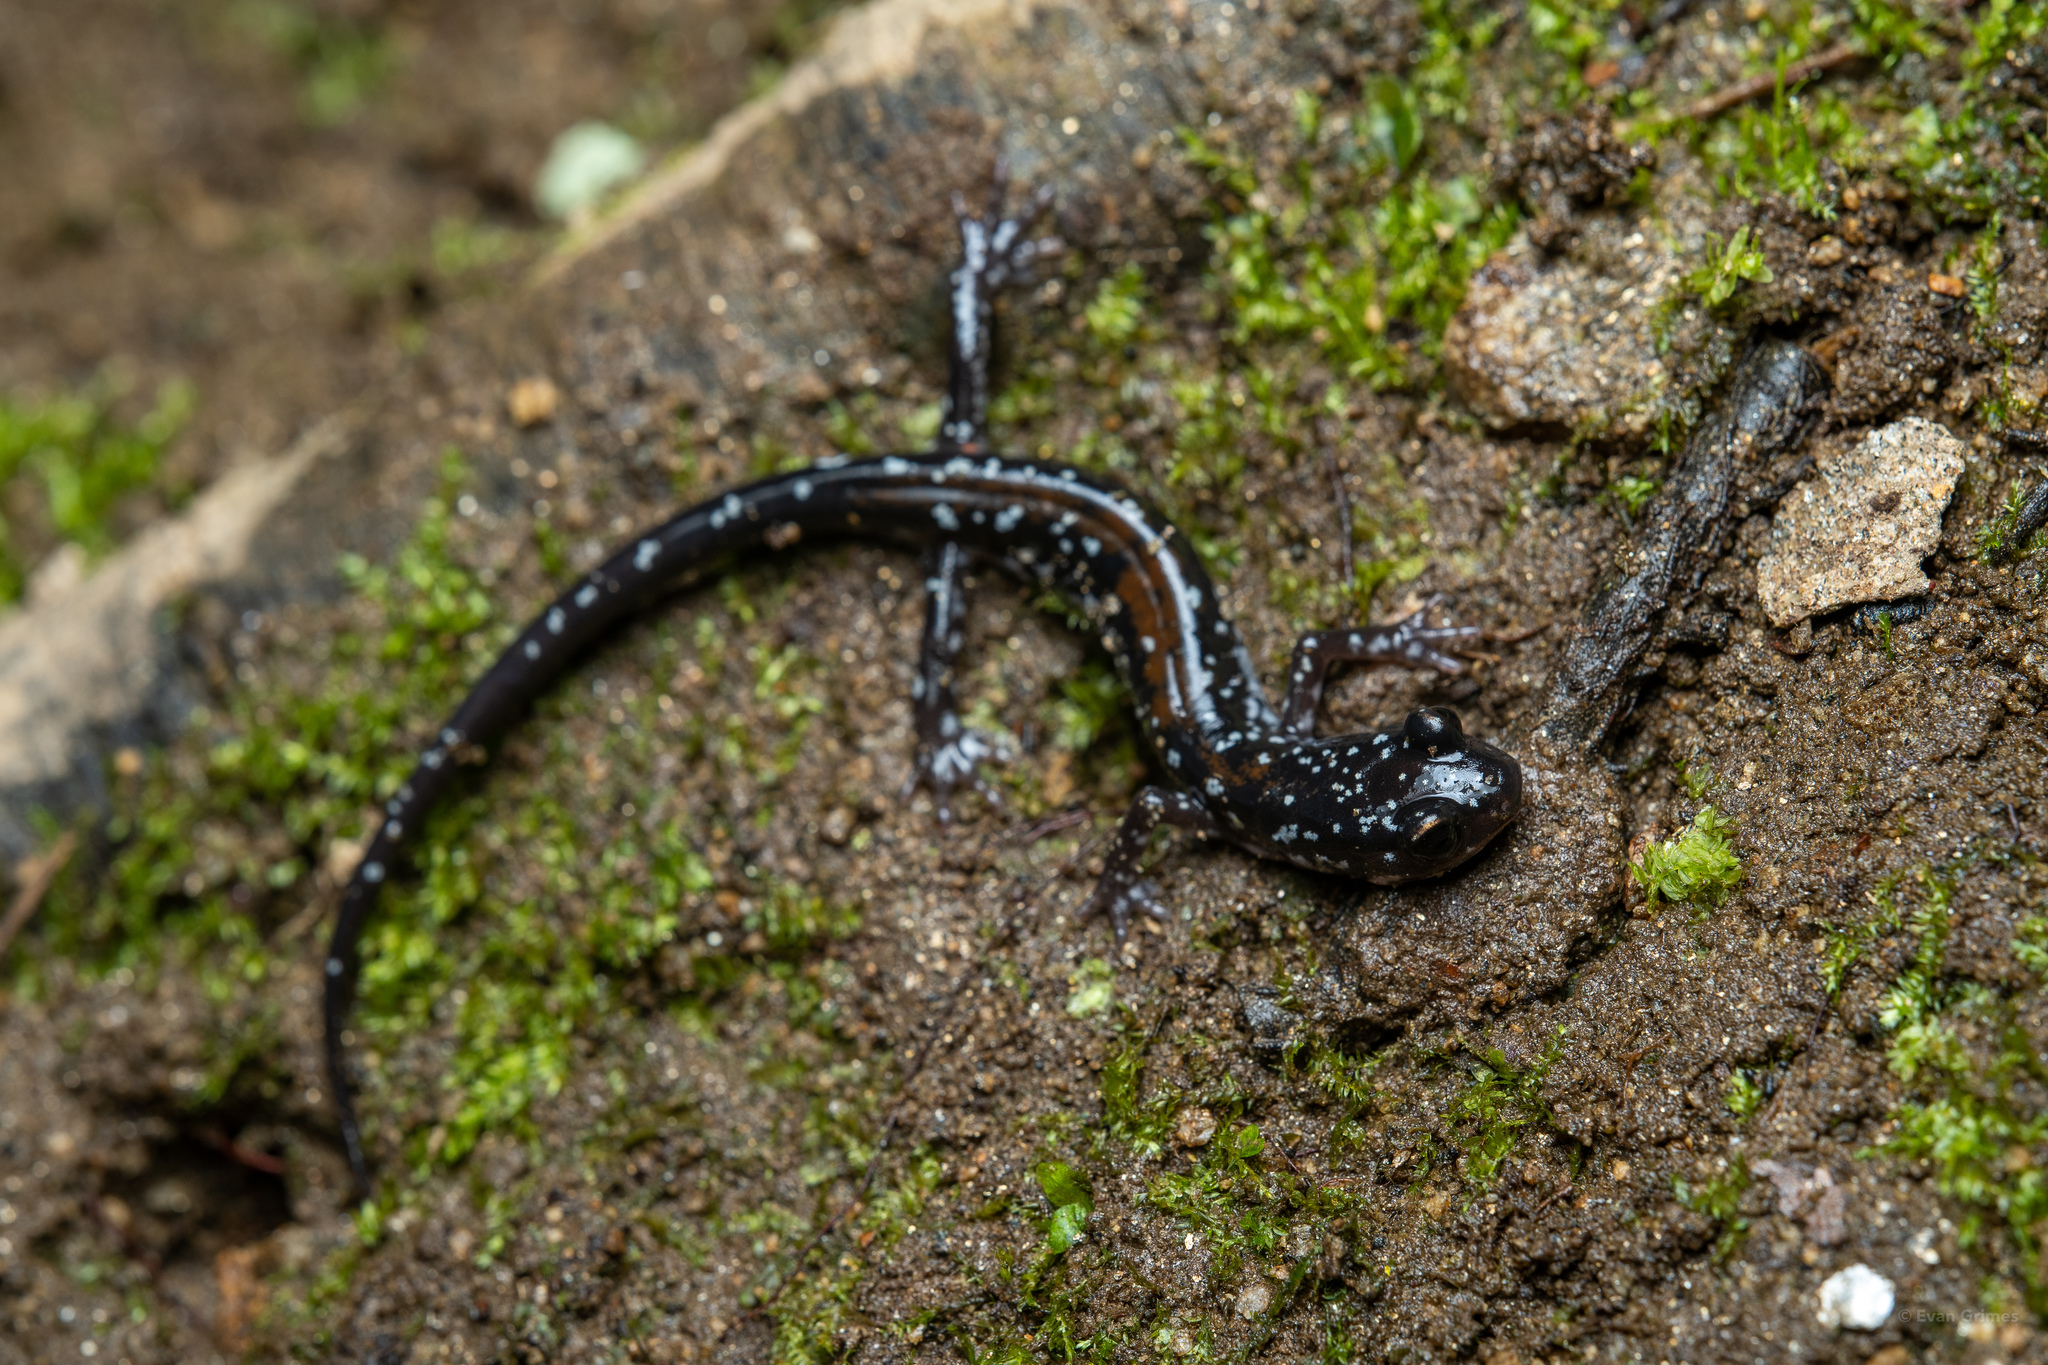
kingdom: Animalia
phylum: Chordata
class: Amphibia
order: Caudata
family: Plethodontidae
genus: Plethodon
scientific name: Plethodon yonahlossee
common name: Yonahlossee salamander
